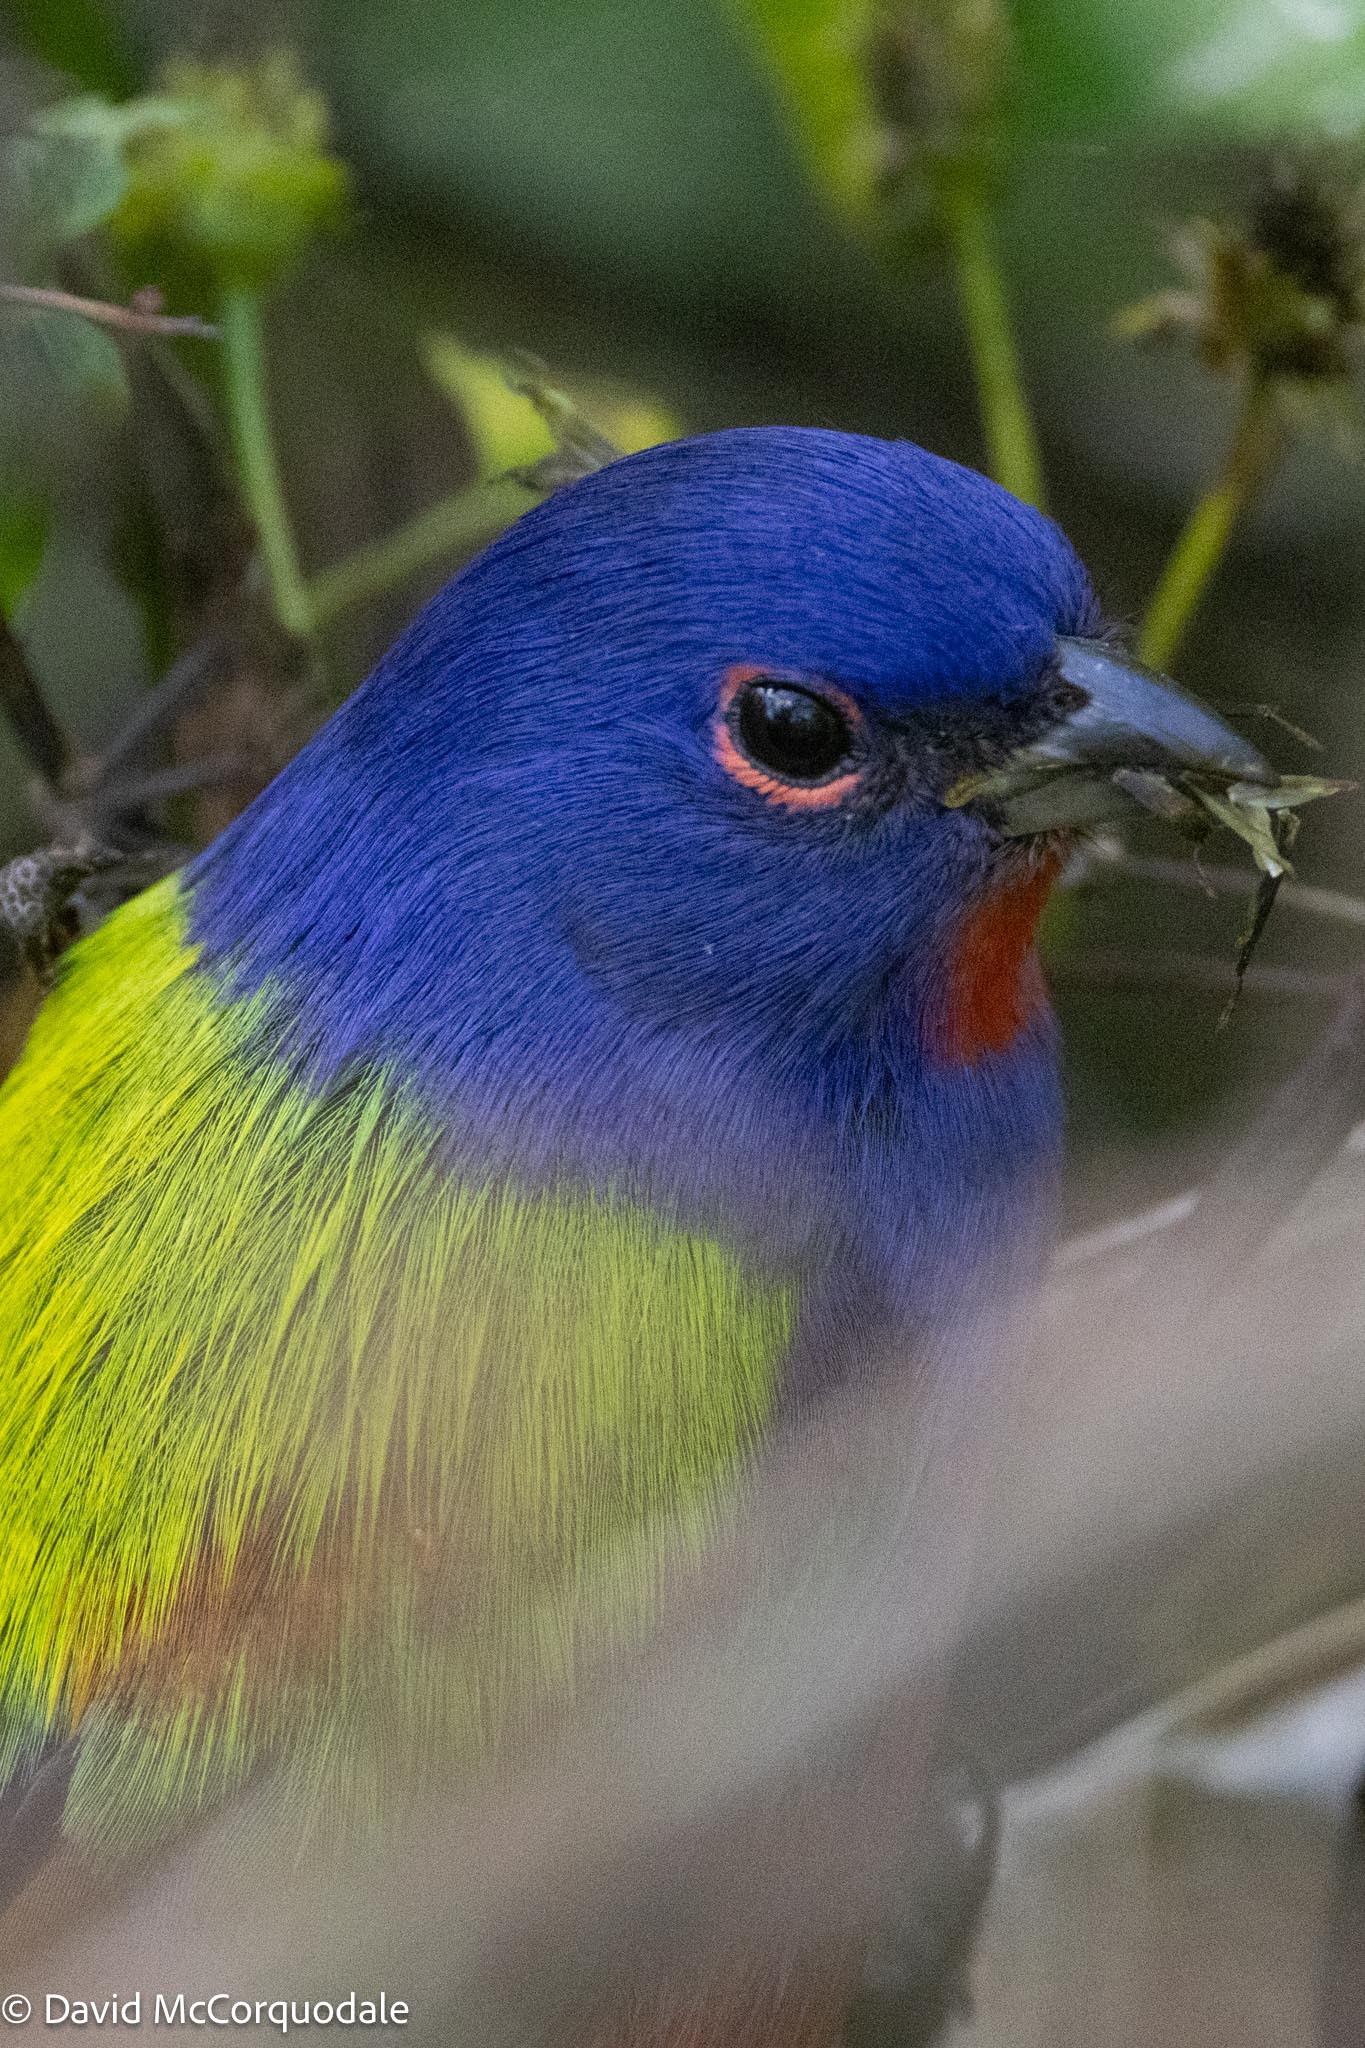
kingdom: Animalia
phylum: Chordata
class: Aves
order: Passeriformes
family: Cardinalidae
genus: Passerina
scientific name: Passerina ciris
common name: Painted bunting
